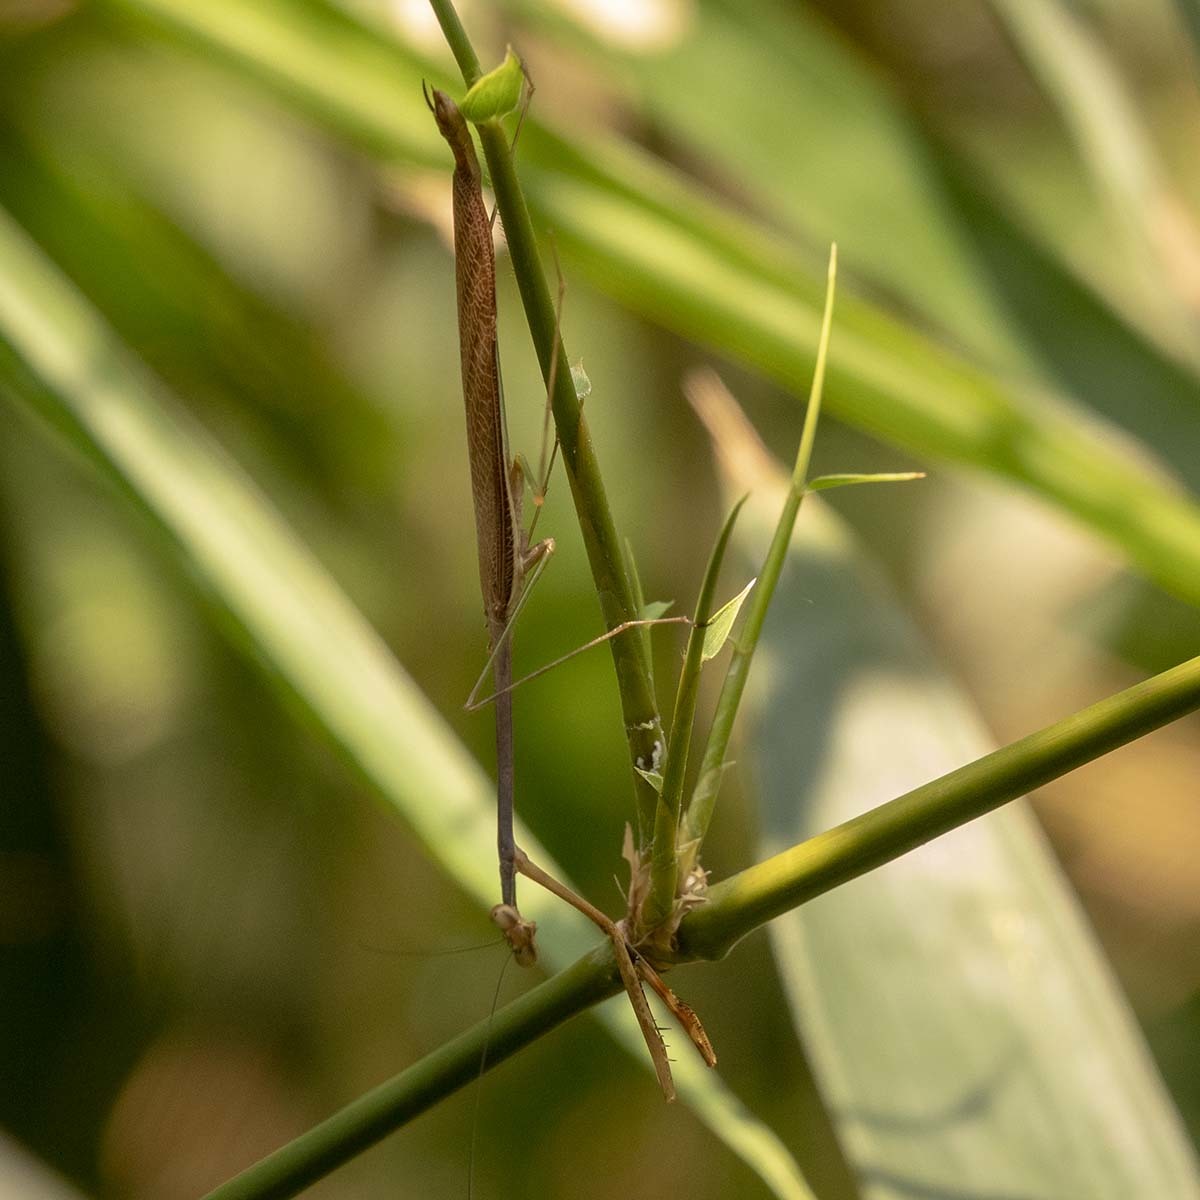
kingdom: Animalia
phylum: Arthropoda
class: Insecta
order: Mantodea
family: Deroplatyidae
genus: Indomenella
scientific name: Indomenella indica
